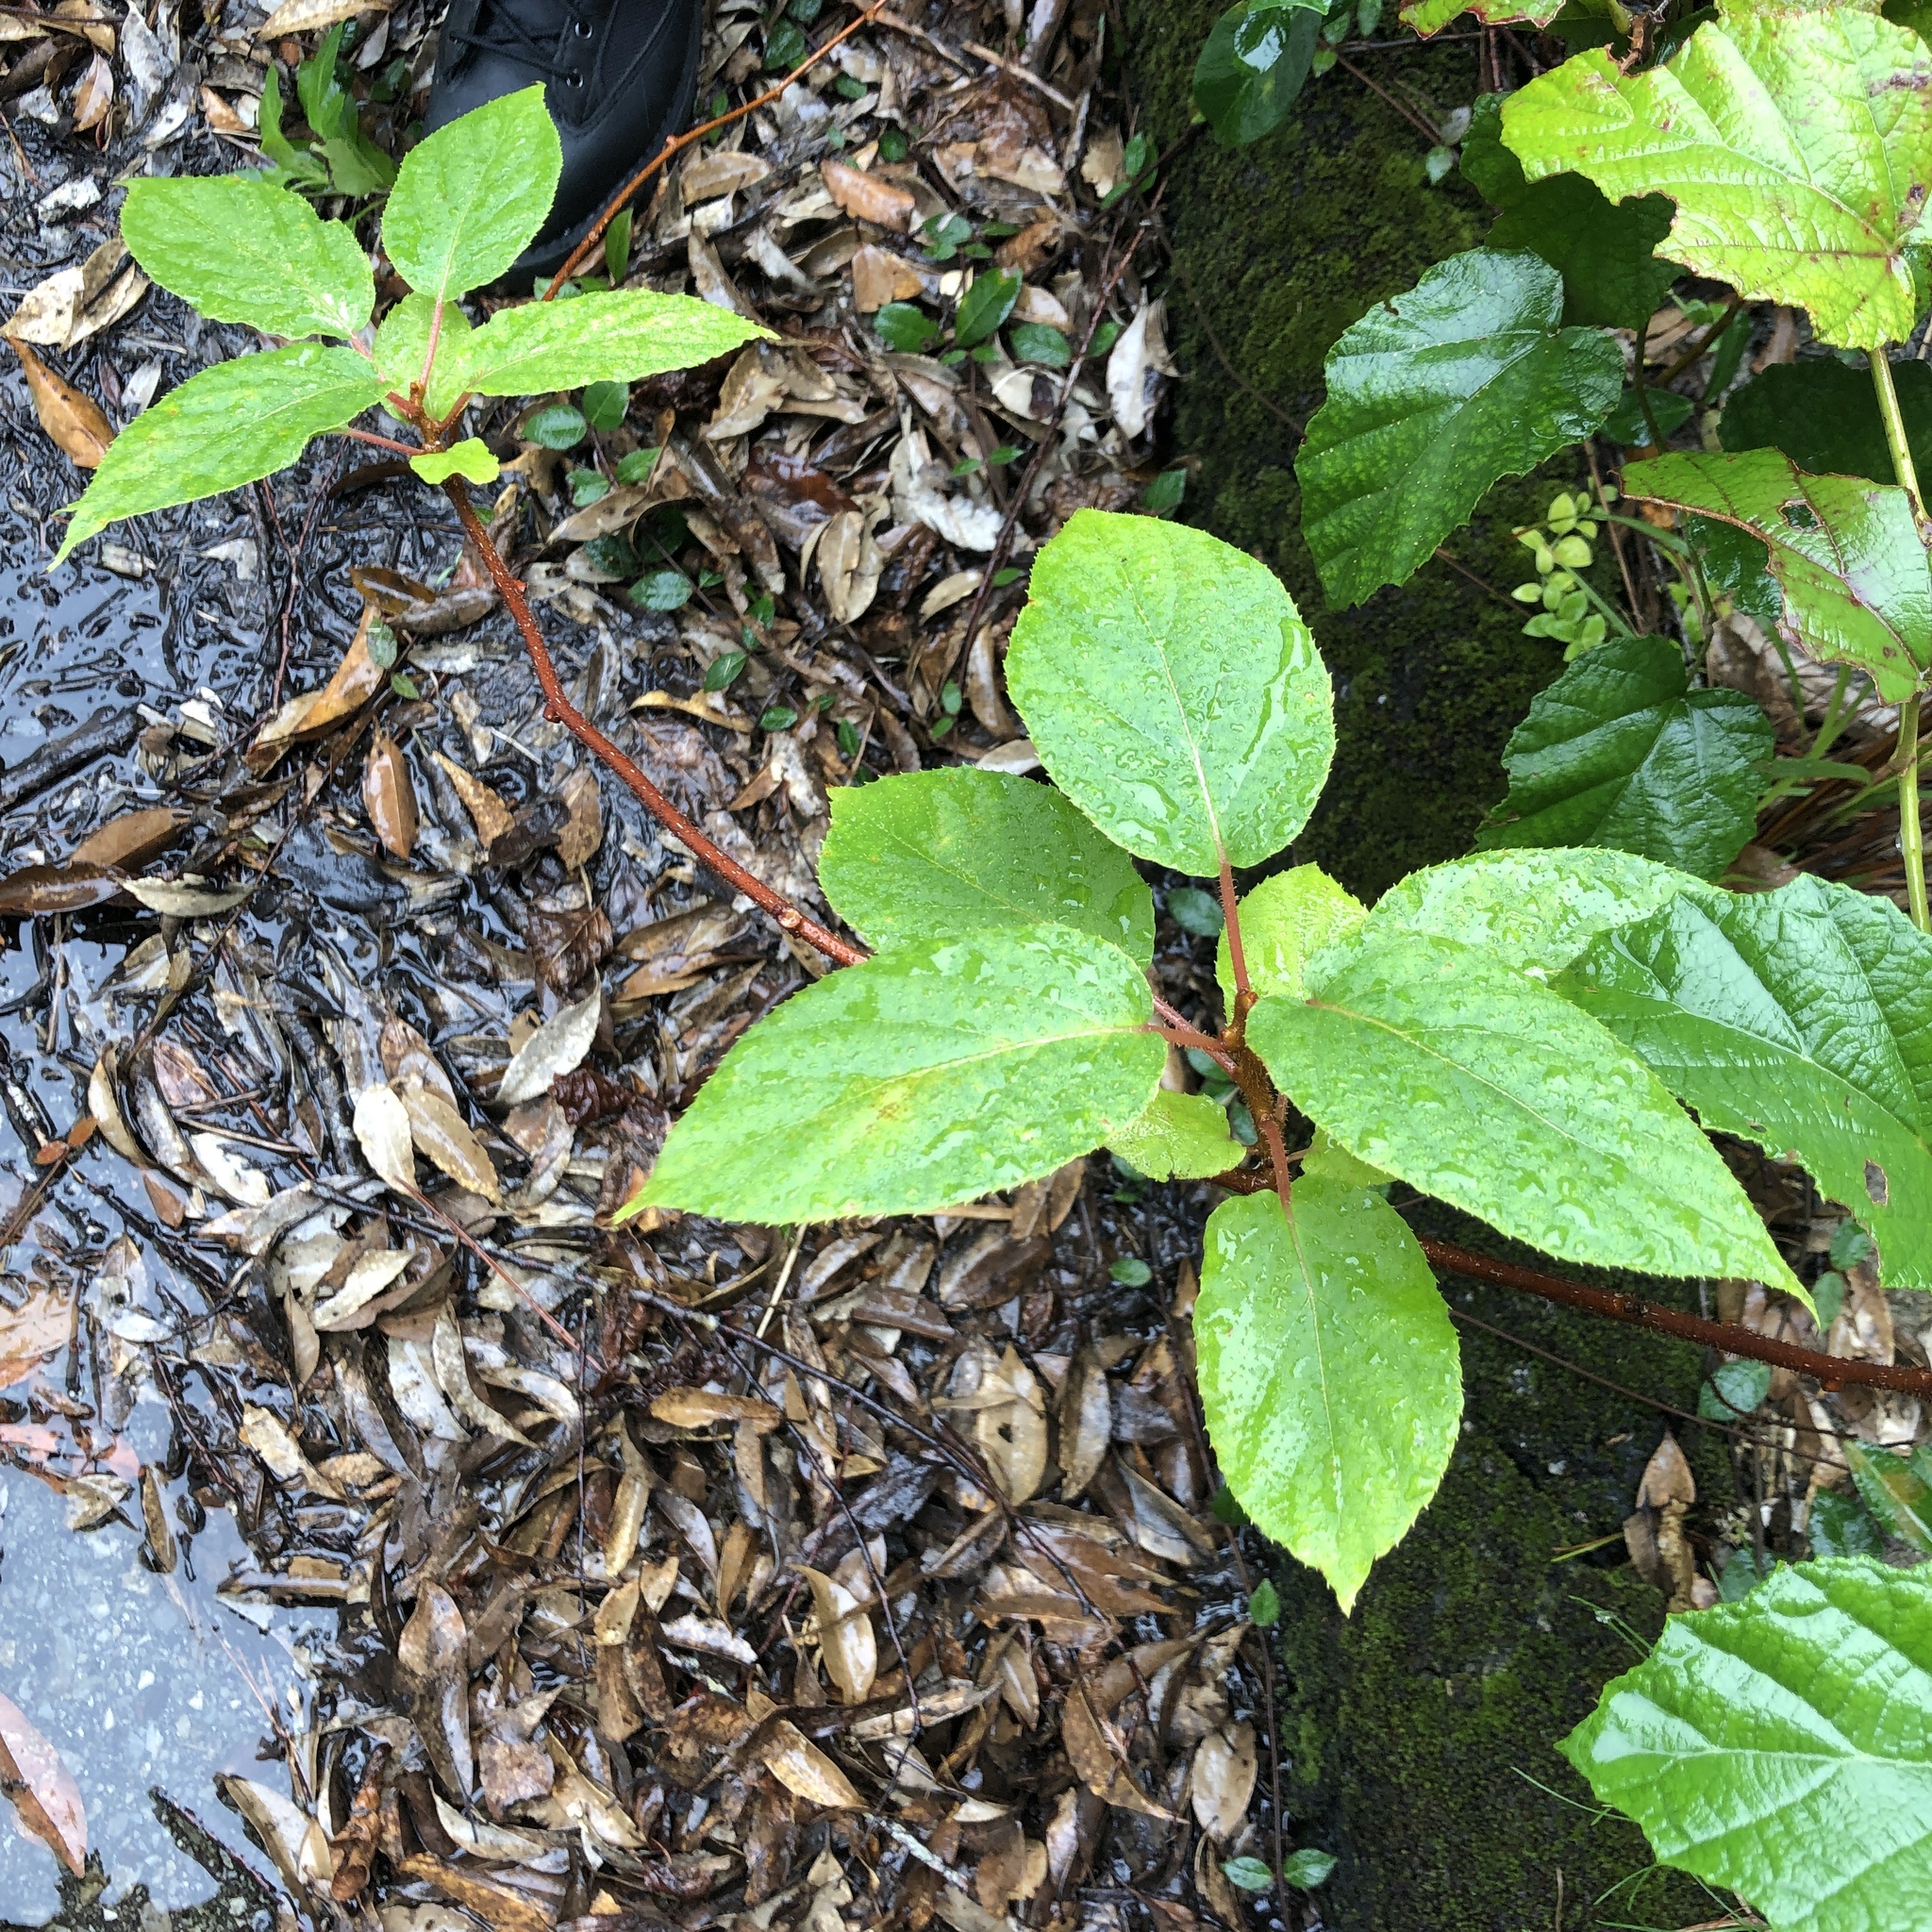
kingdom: Plantae
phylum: Tracheophyta
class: Magnoliopsida
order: Ericales
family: Actinidiaceae
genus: Actinidia
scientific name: Actinidia rufa
